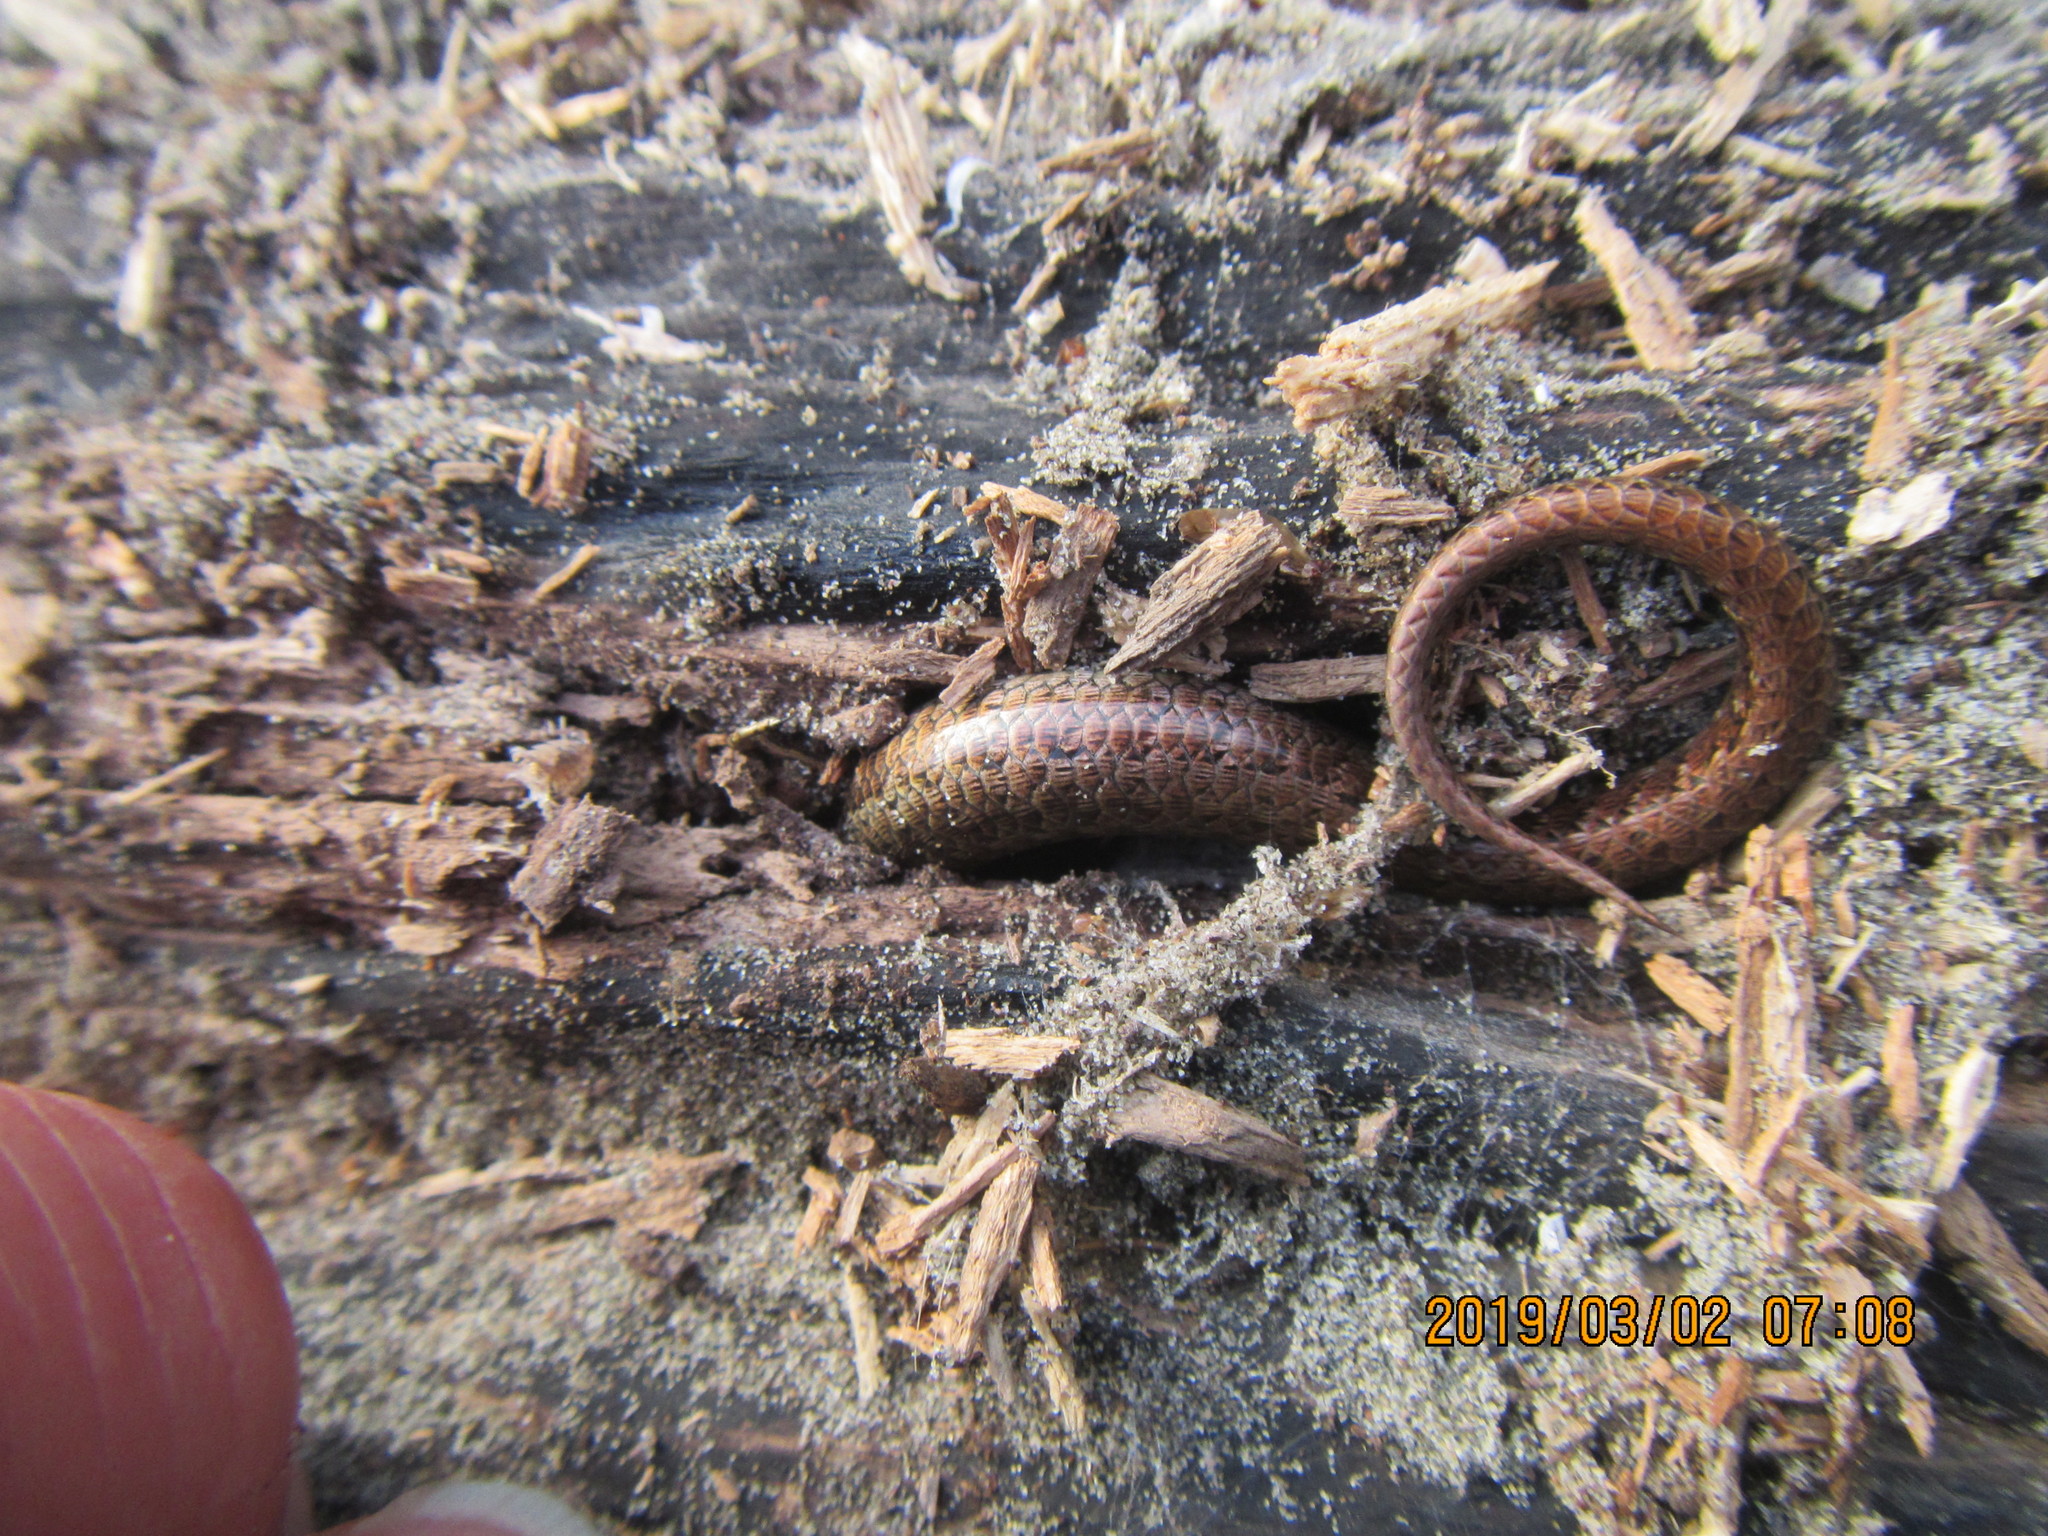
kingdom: Animalia
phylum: Chordata
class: Squamata
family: Scincidae
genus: Oligosoma
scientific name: Oligosoma polychroma
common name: Common new zealand skink
